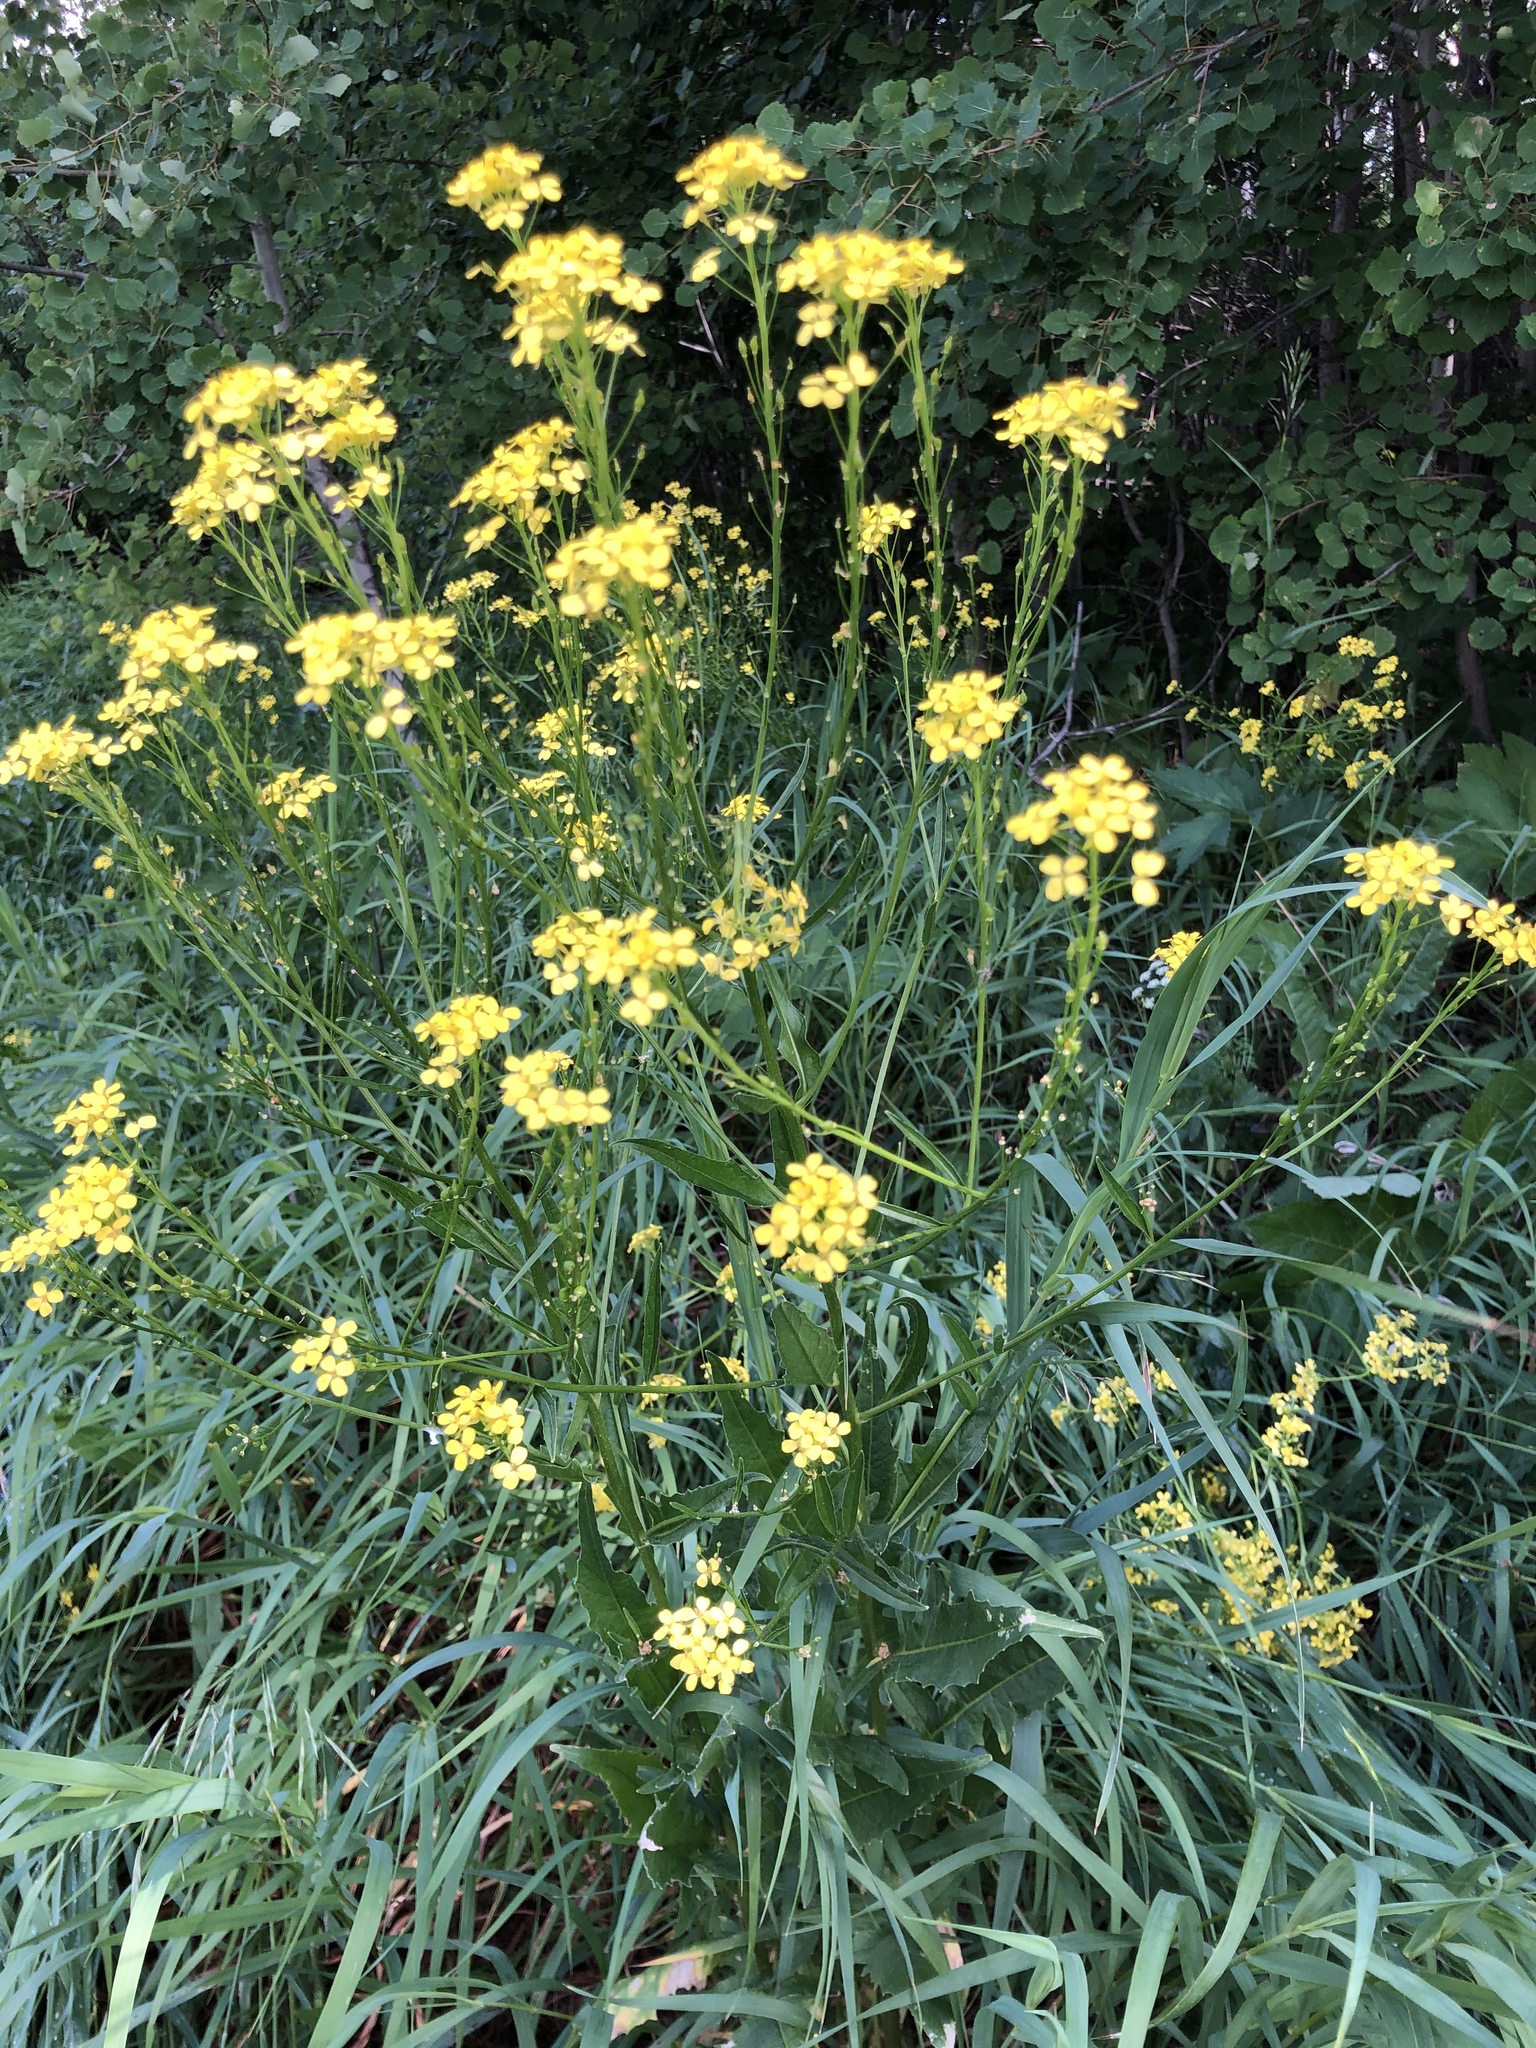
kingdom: Plantae
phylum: Tracheophyta
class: Magnoliopsida
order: Brassicales
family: Brassicaceae
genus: Bunias
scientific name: Bunias orientalis
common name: Warty-cabbage
